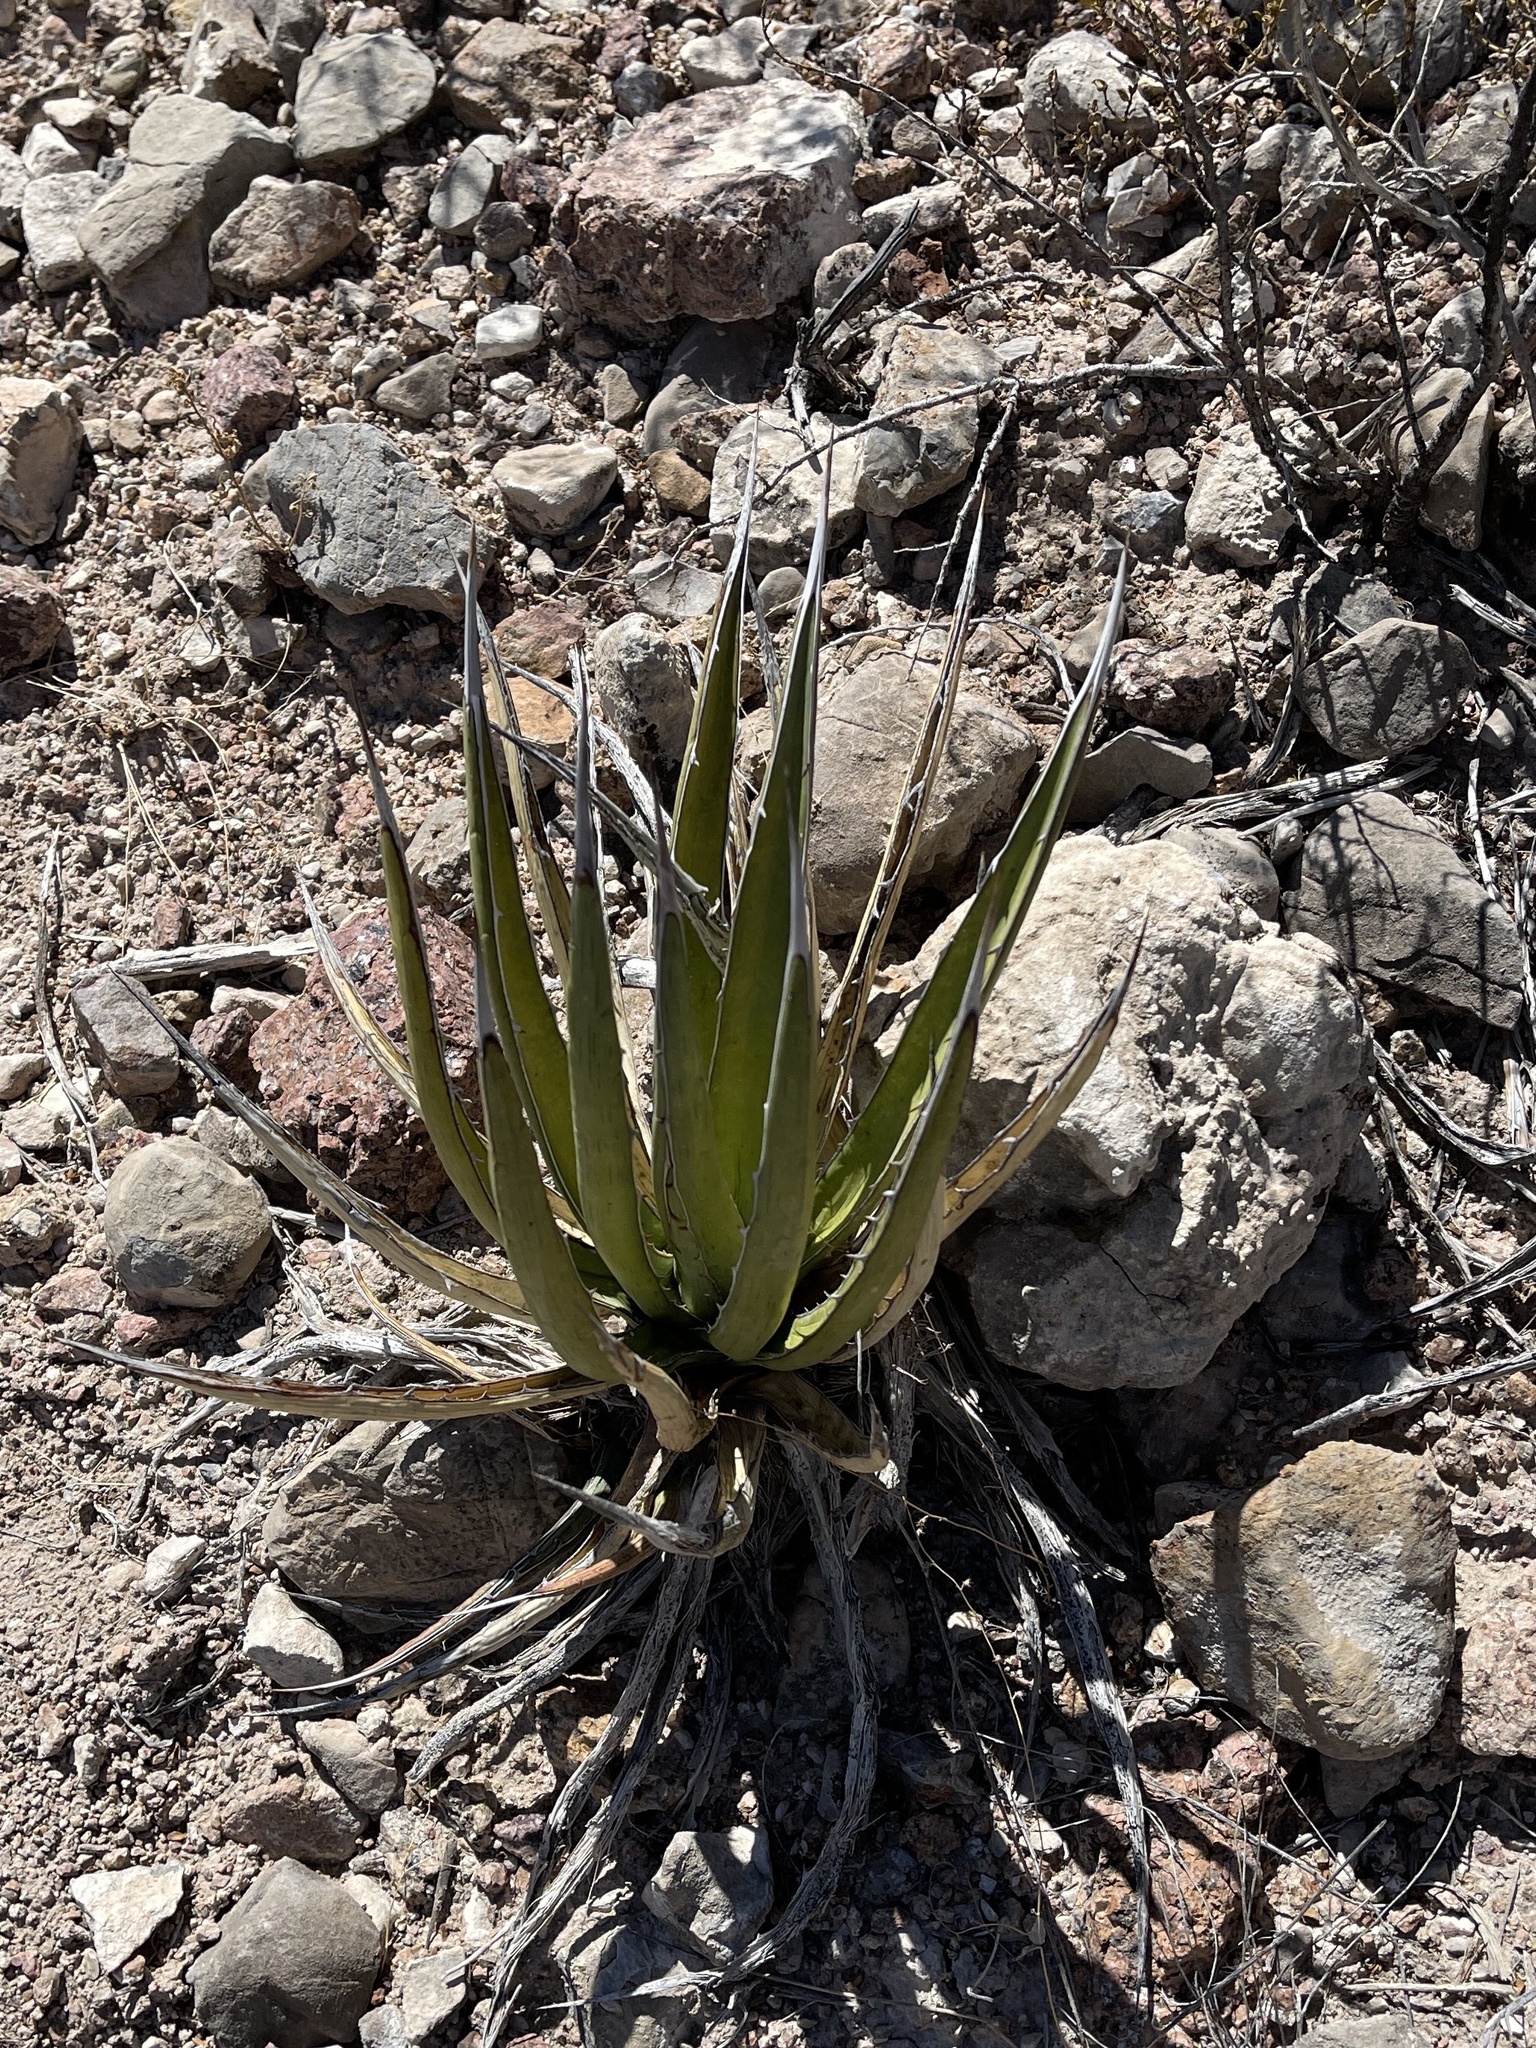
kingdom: Plantae
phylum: Tracheophyta
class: Liliopsida
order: Asparagales
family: Asparagaceae
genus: Agave
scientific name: Agave lechuguilla
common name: Lecheguilla agave
